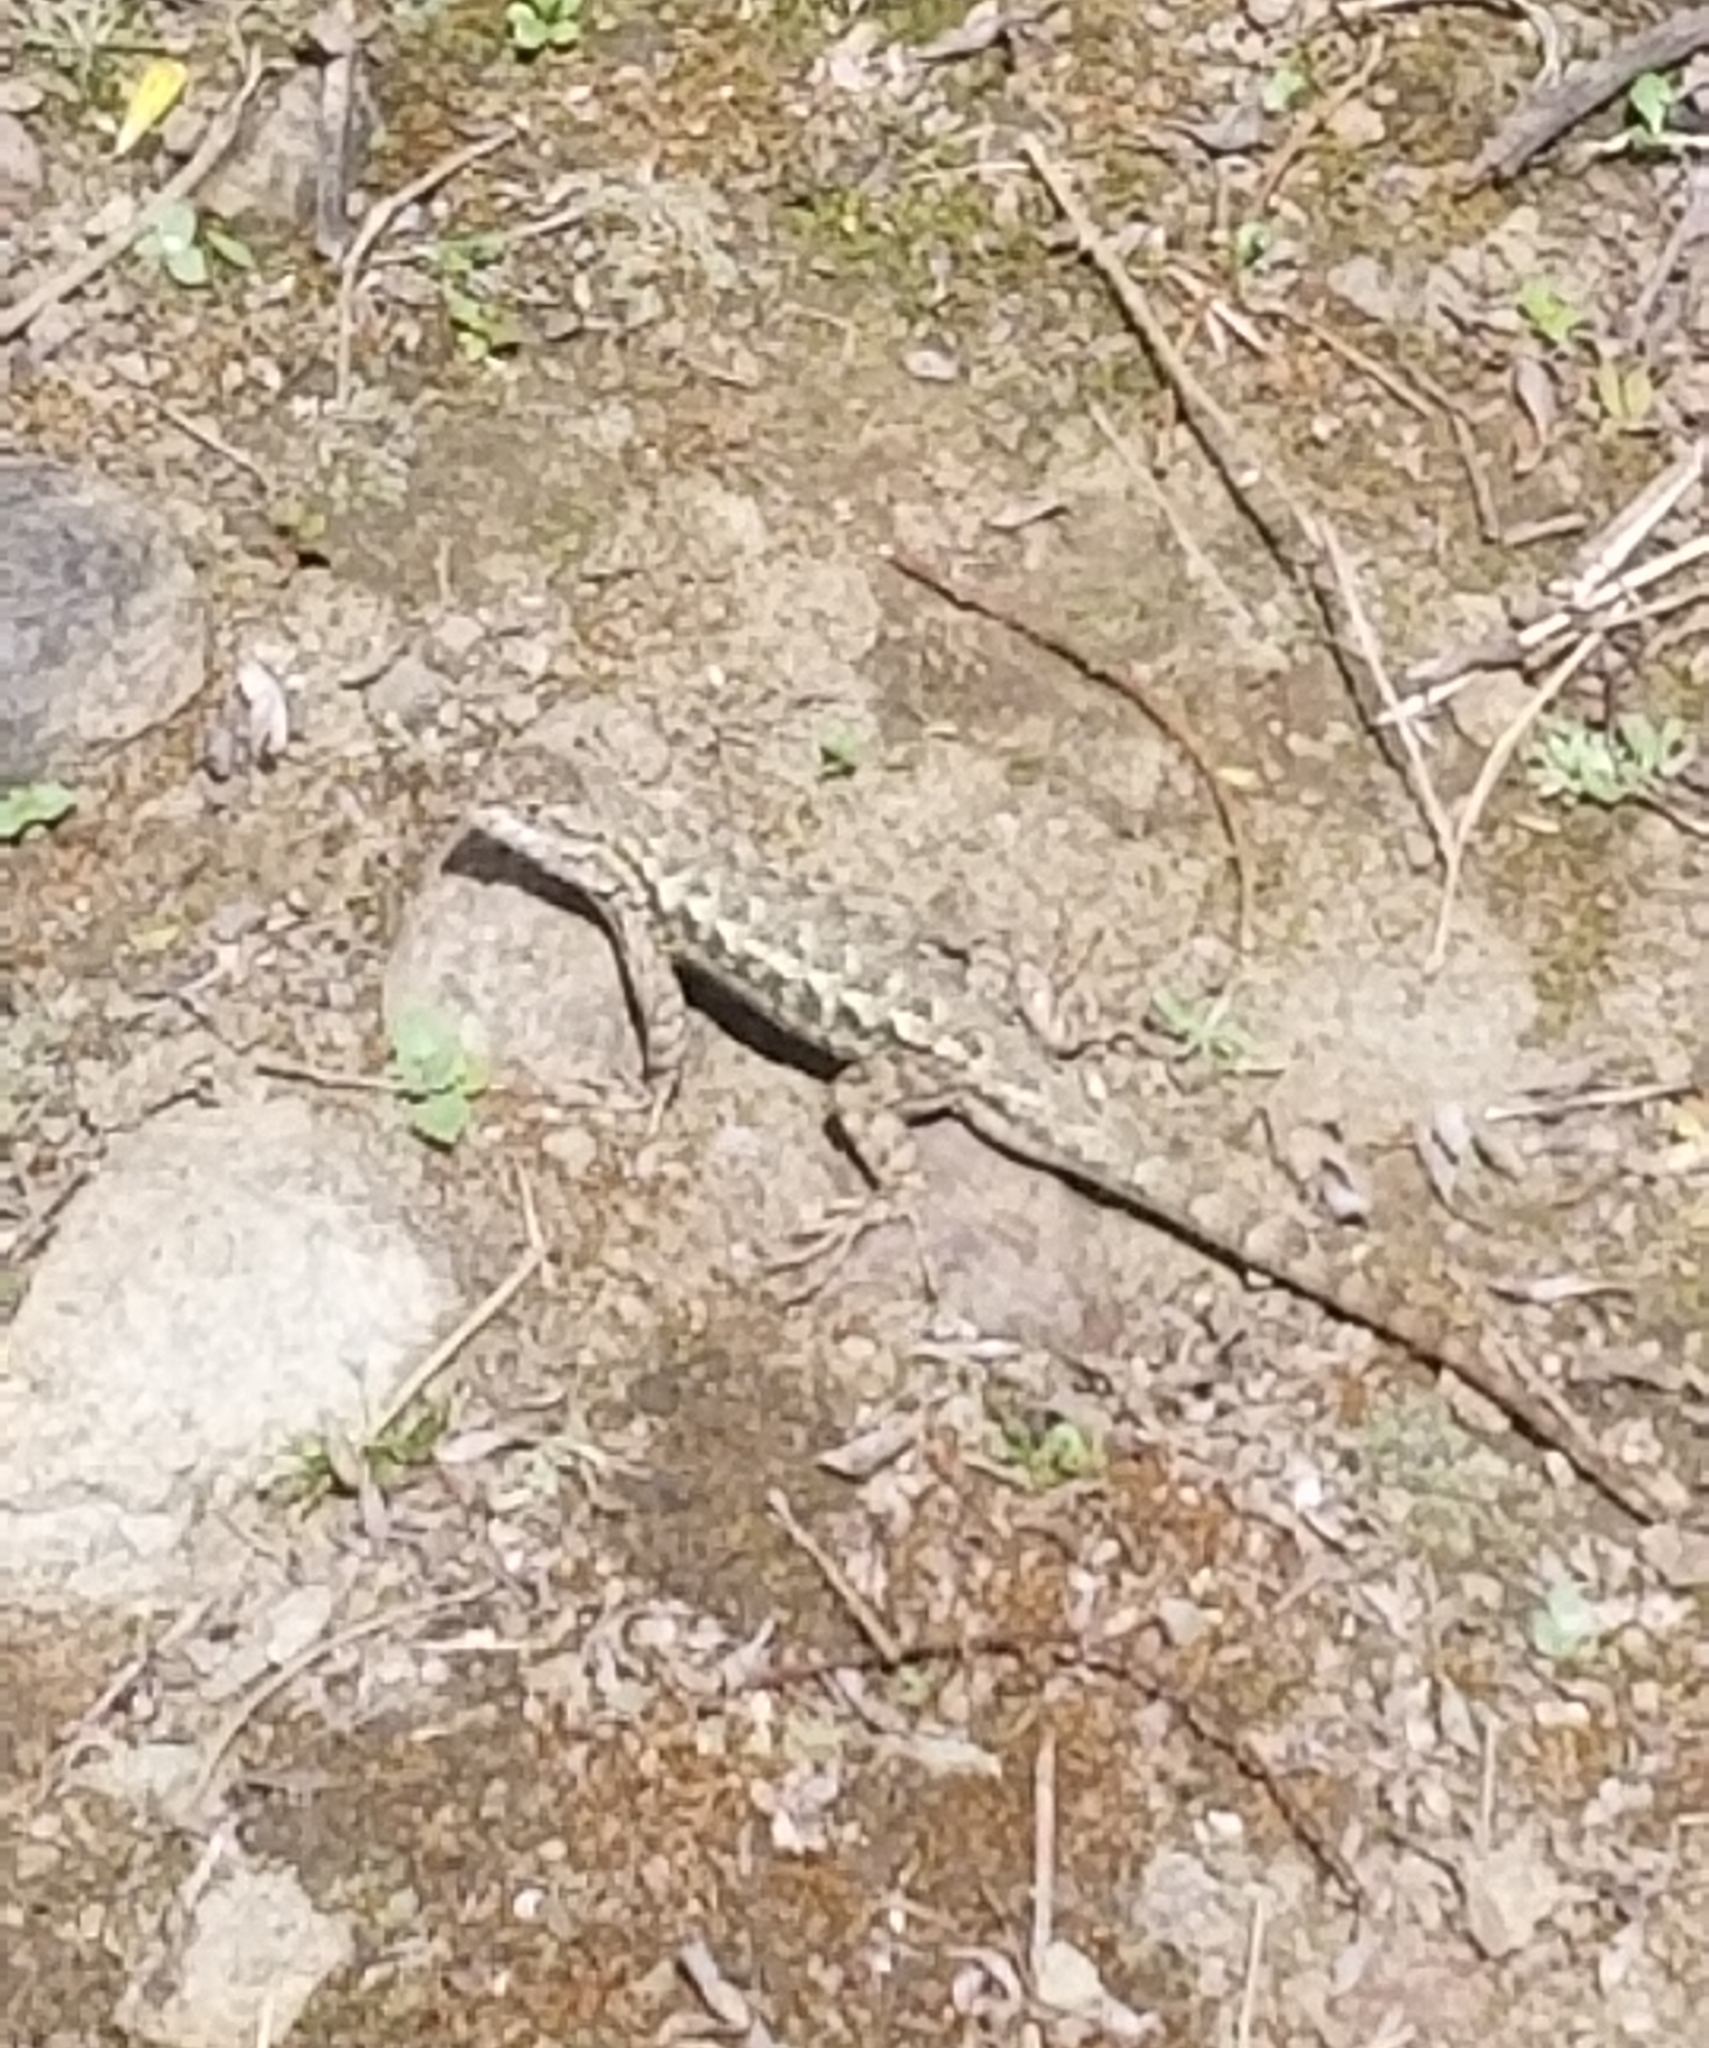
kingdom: Animalia
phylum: Chordata
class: Squamata
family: Phrynosomatidae
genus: Sceloporus
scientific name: Sceloporus occidentalis
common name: Western fence lizard
